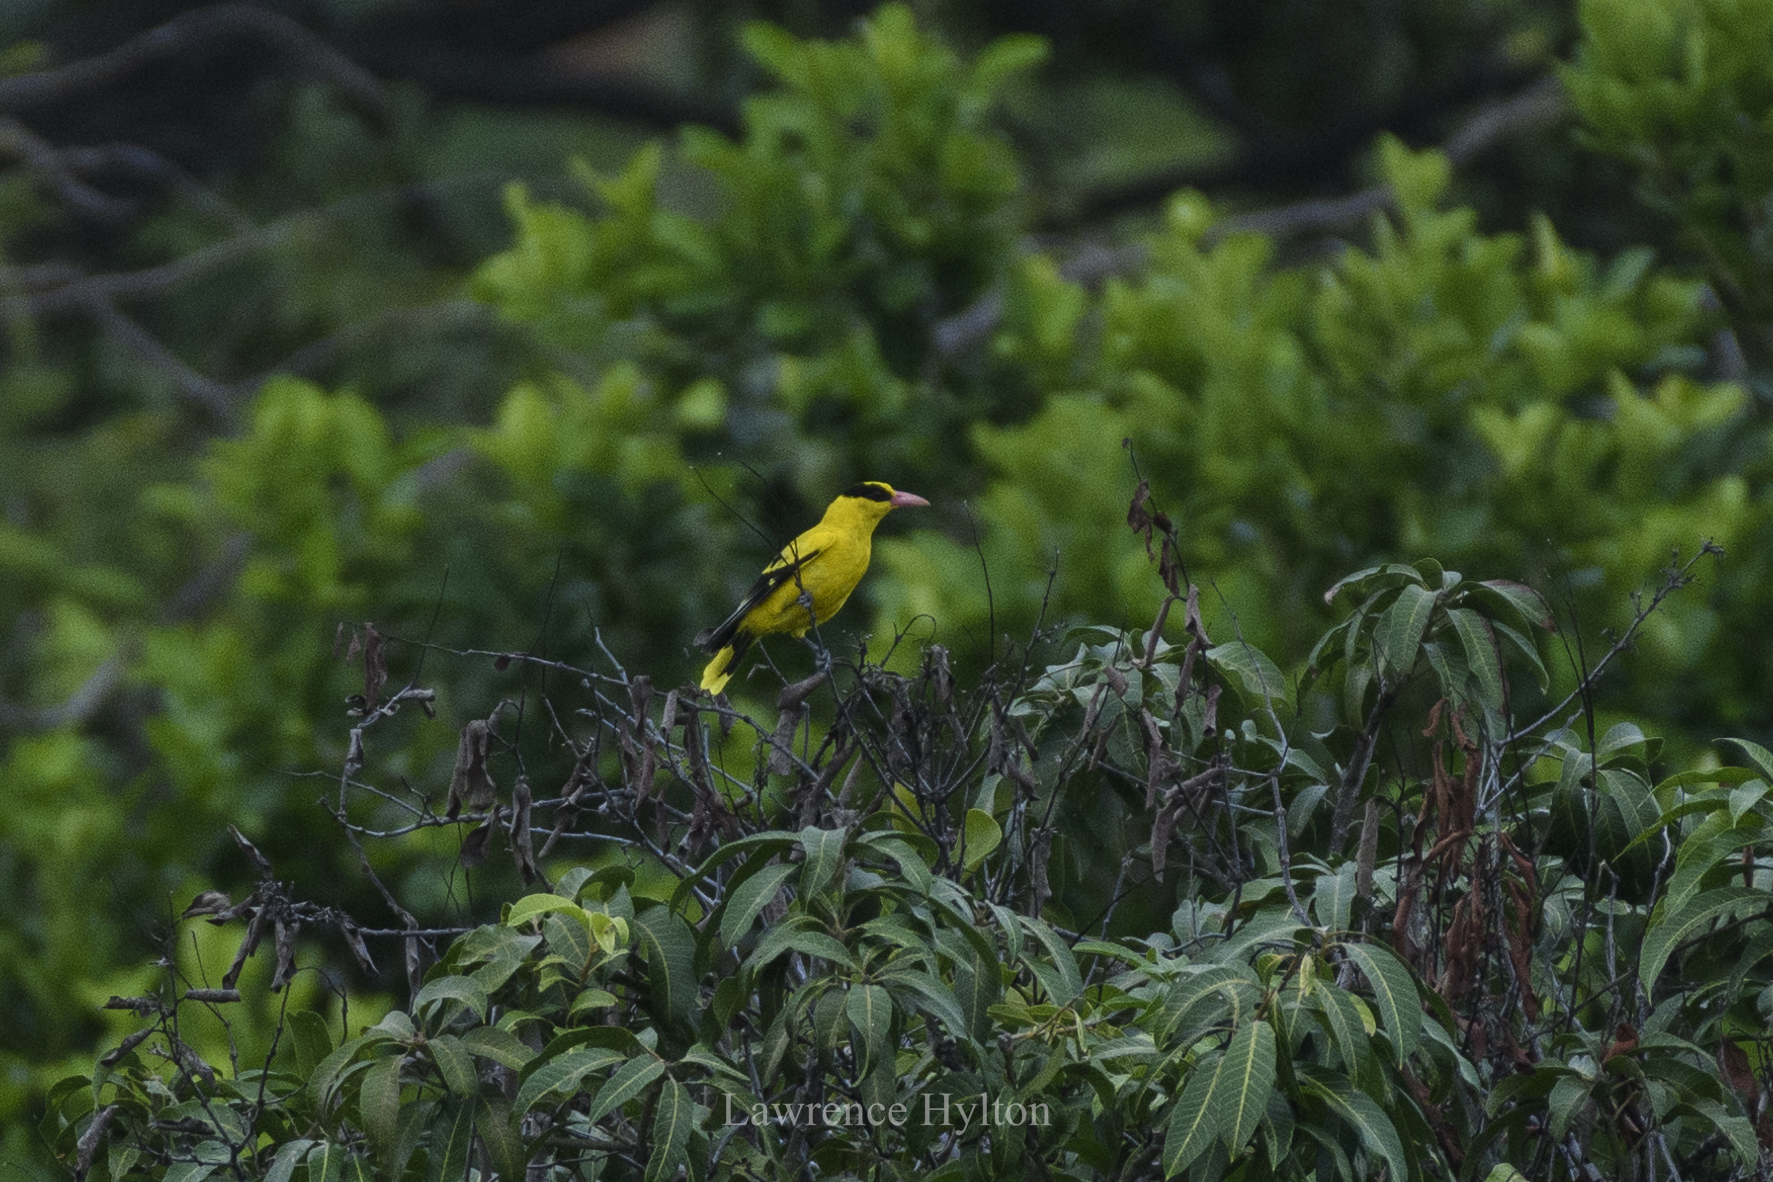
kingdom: Animalia
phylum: Chordata
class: Aves
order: Passeriformes
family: Oriolidae
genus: Oriolus
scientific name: Oriolus chinensis
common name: Black-naped oriole
